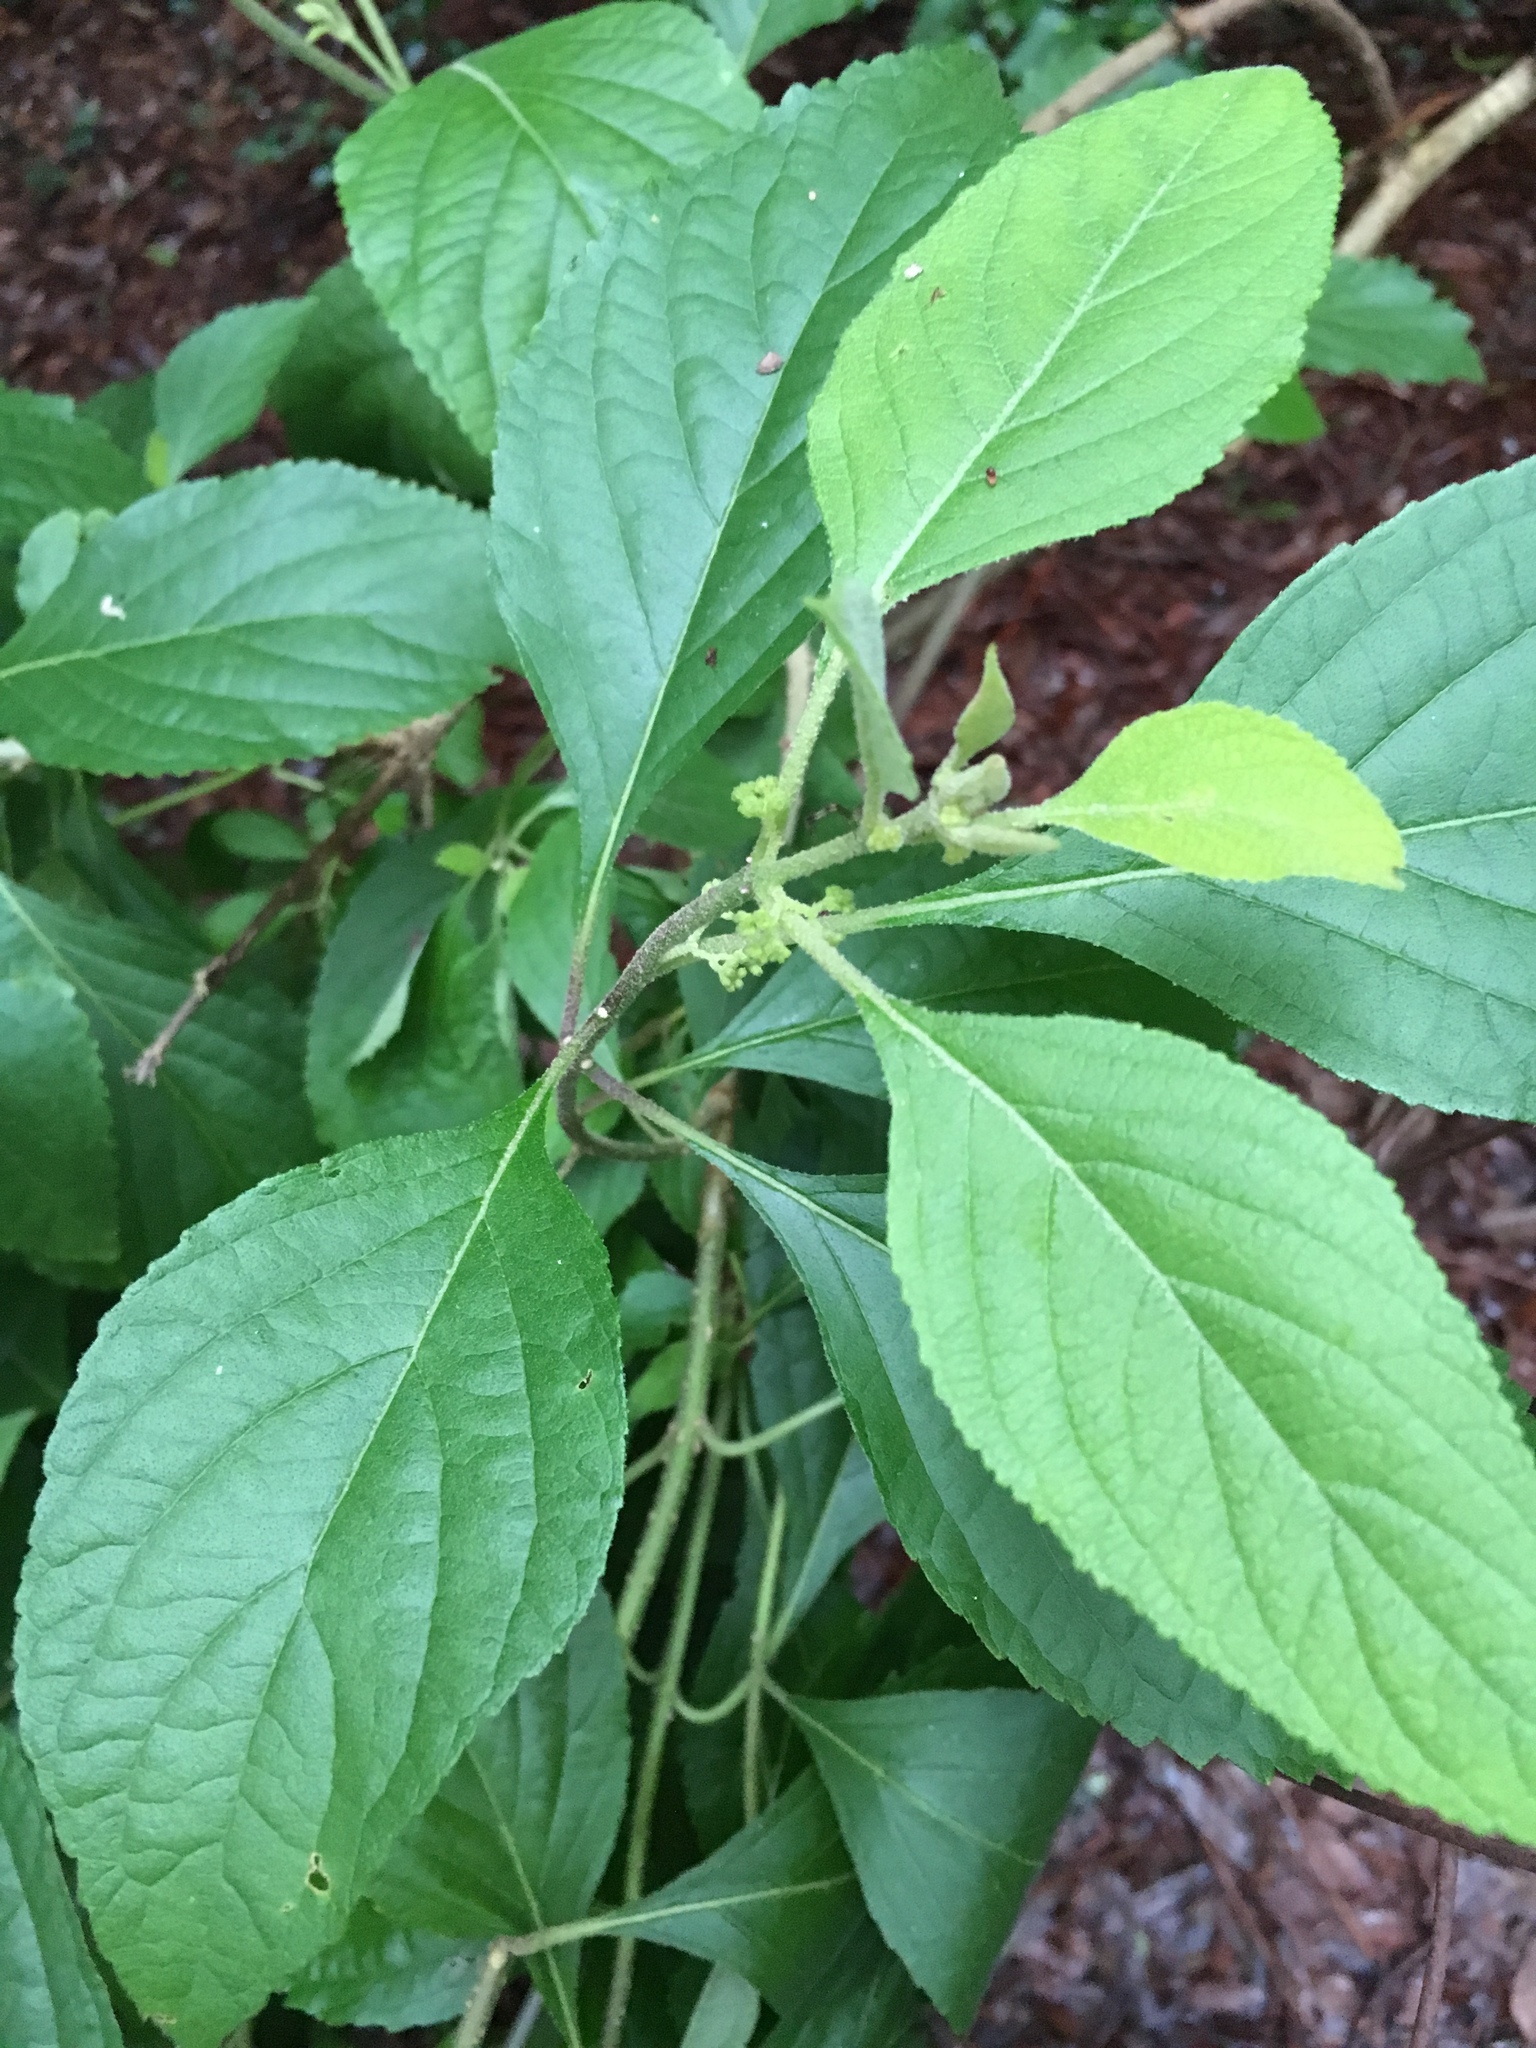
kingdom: Plantae
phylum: Tracheophyta
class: Magnoliopsida
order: Lamiales
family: Lamiaceae
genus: Callicarpa
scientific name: Callicarpa americana
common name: American beautyberry
